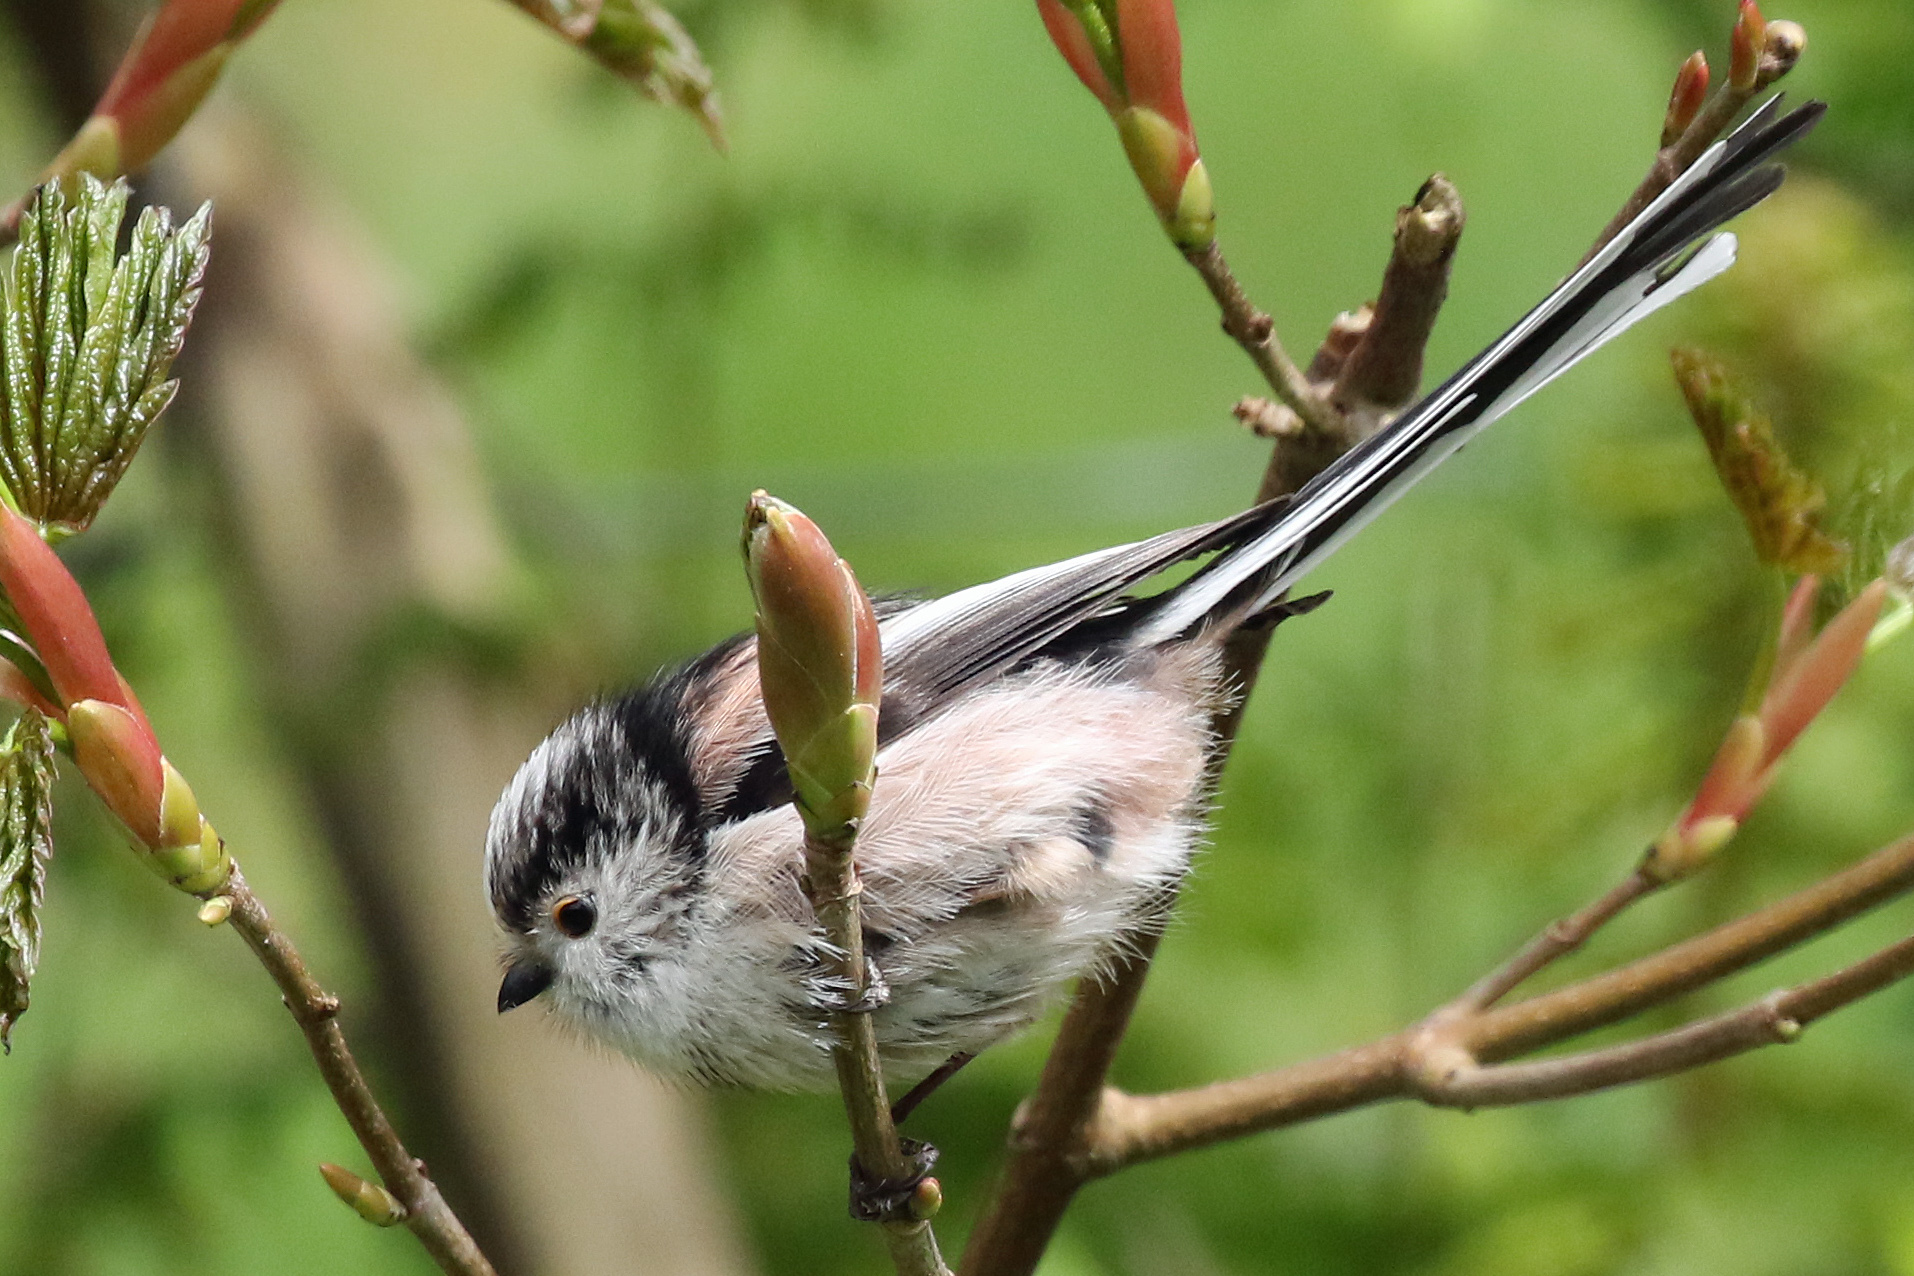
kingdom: Animalia
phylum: Chordata
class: Aves
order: Passeriformes
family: Aegithalidae
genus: Aegithalos
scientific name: Aegithalos caudatus
